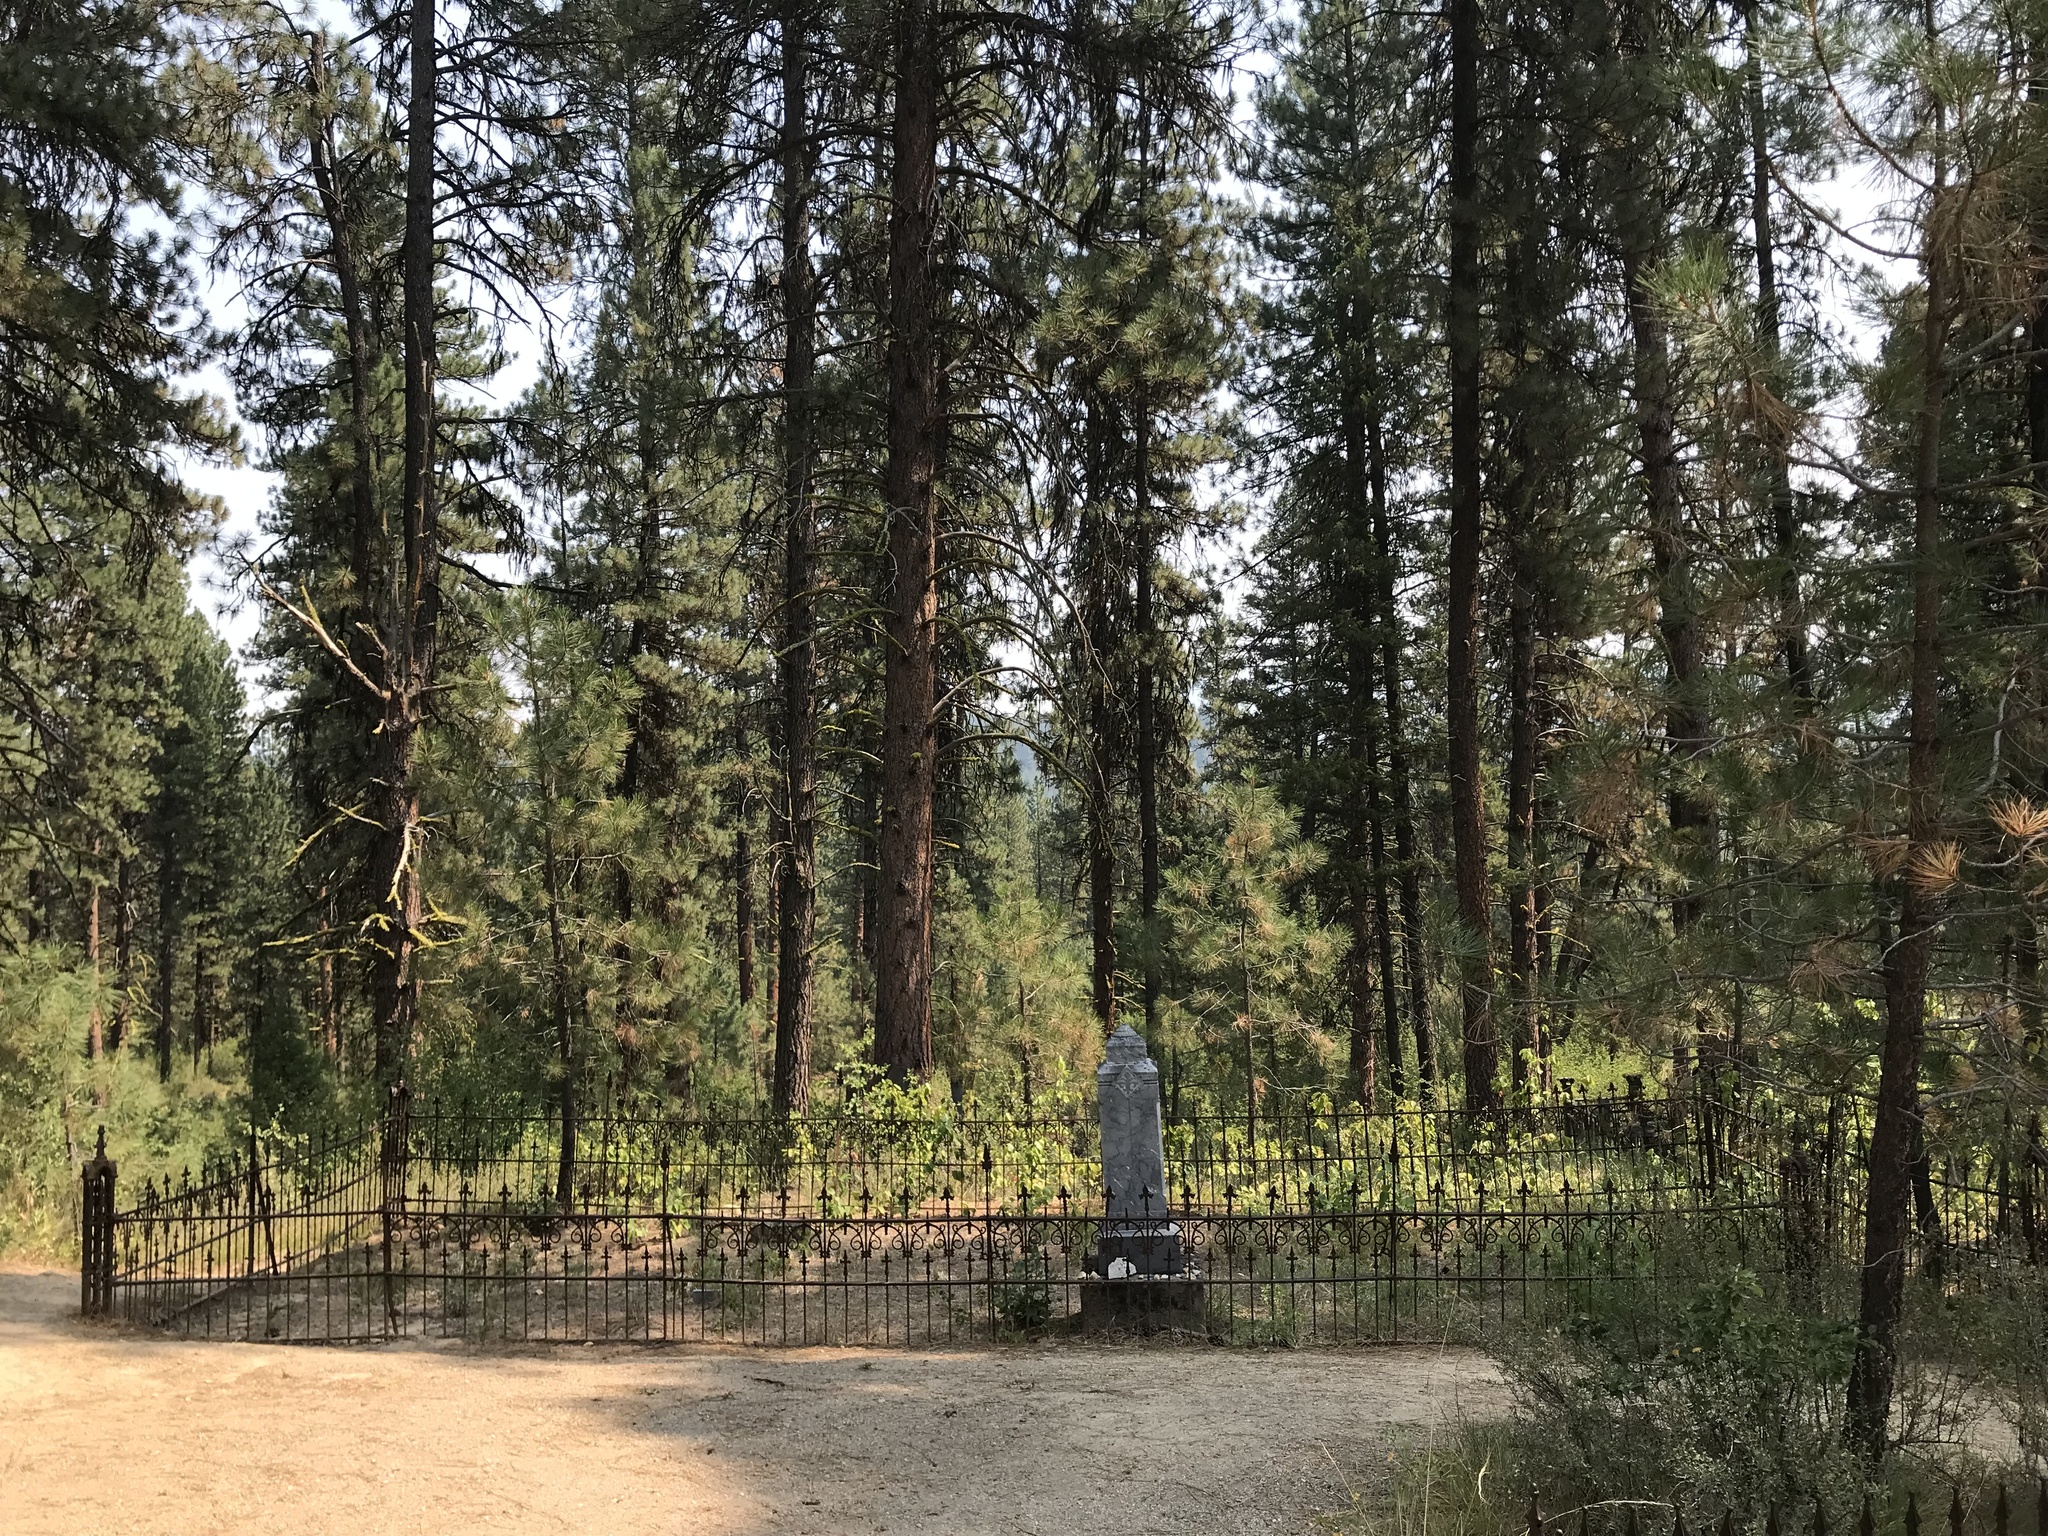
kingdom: Plantae
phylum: Tracheophyta
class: Pinopsida
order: Pinales
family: Pinaceae
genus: Pinus
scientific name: Pinus ponderosa
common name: Western yellow-pine
